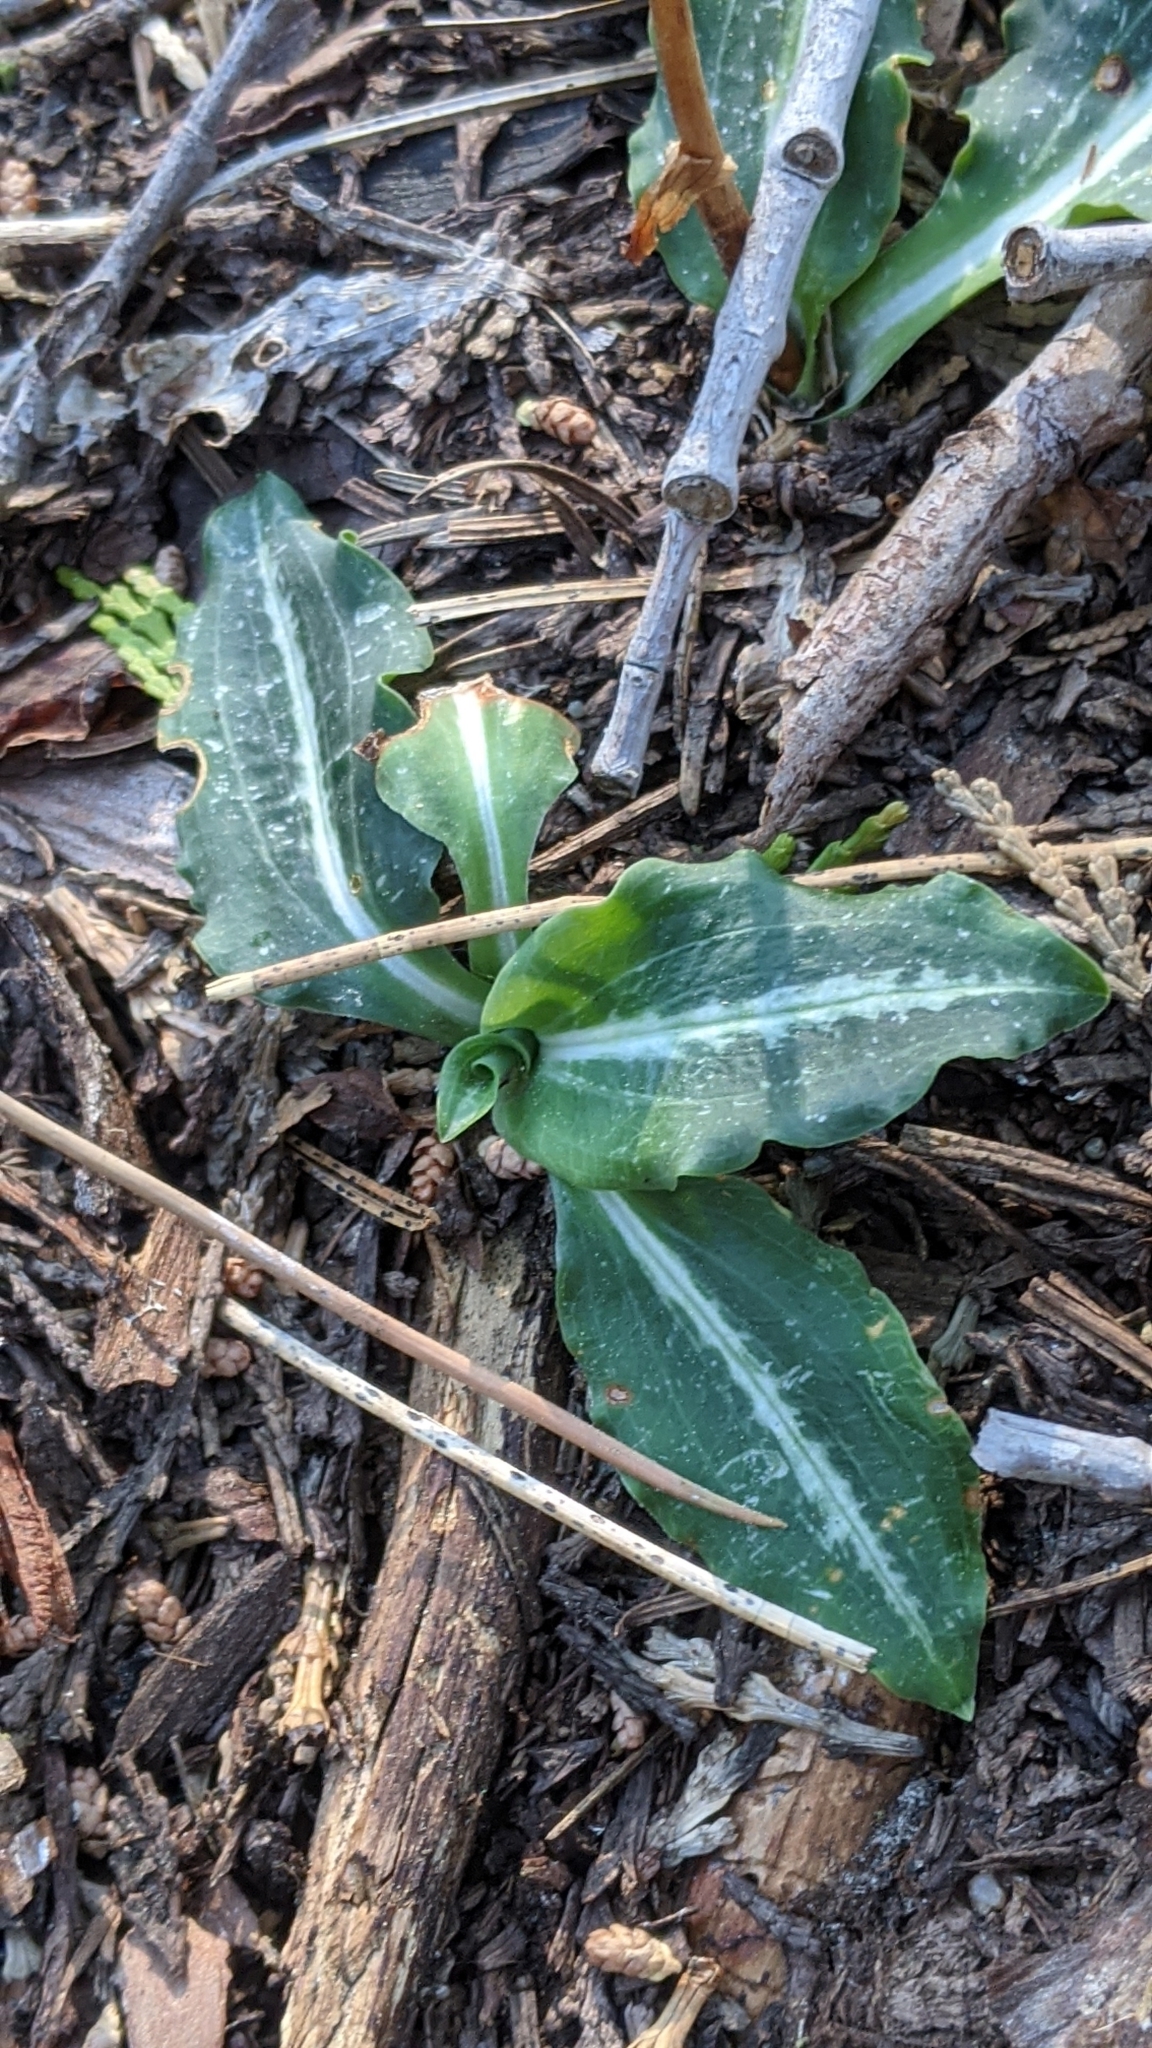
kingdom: Plantae
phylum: Tracheophyta
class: Liliopsida
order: Asparagales
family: Orchidaceae
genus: Goodyera
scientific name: Goodyera oblongifolia
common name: Giant rattlesnake-plantain
